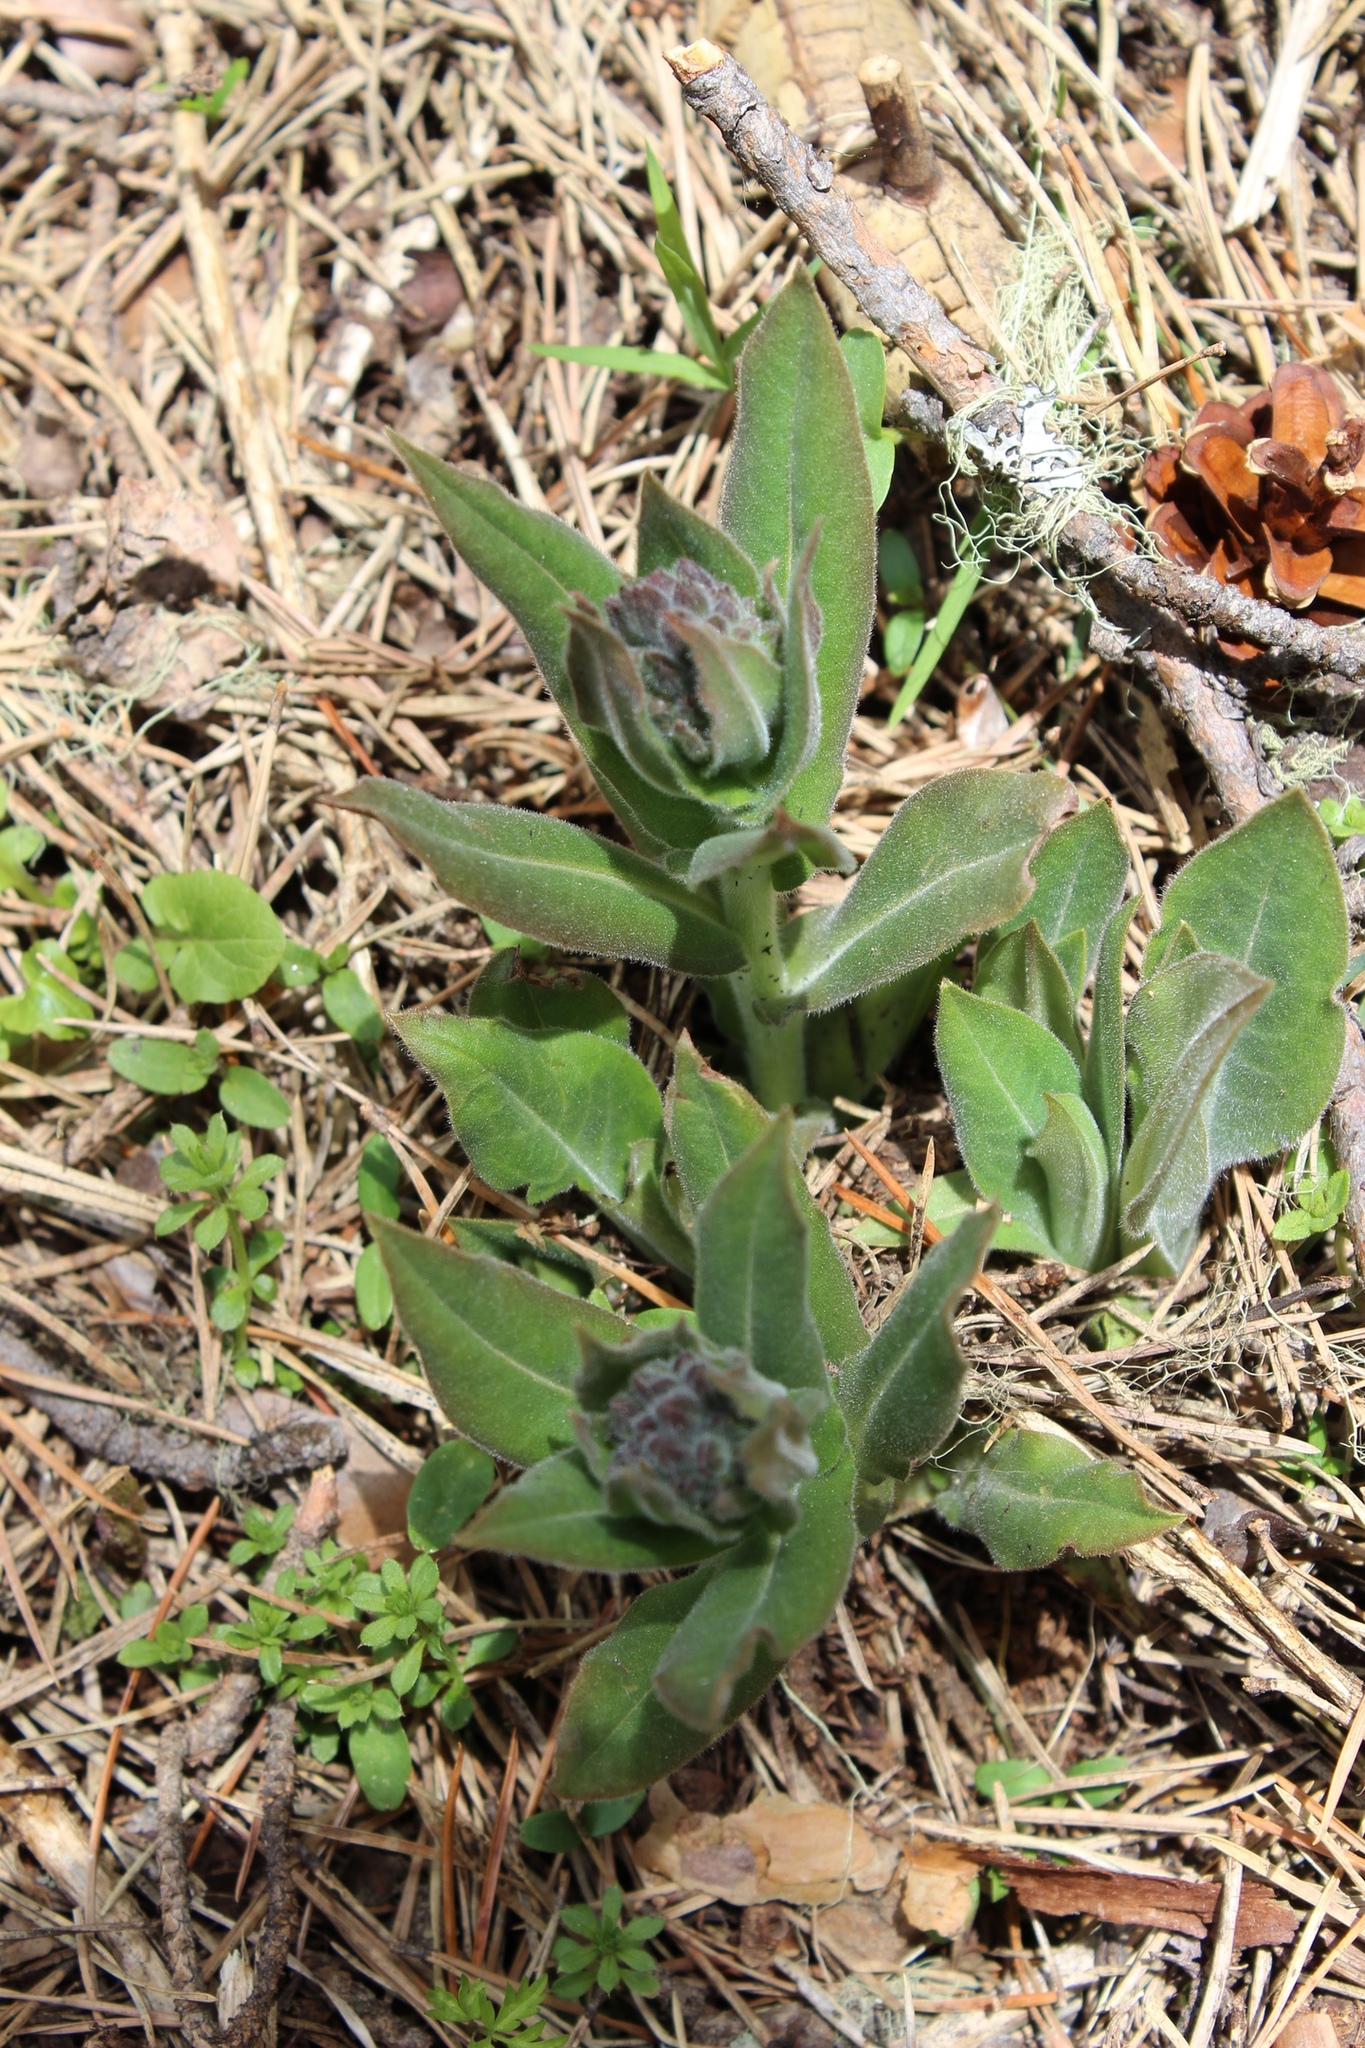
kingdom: Plantae
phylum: Tracheophyta
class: Magnoliopsida
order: Boraginales
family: Boraginaceae
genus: Pulmonaria
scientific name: Pulmonaria mollis
